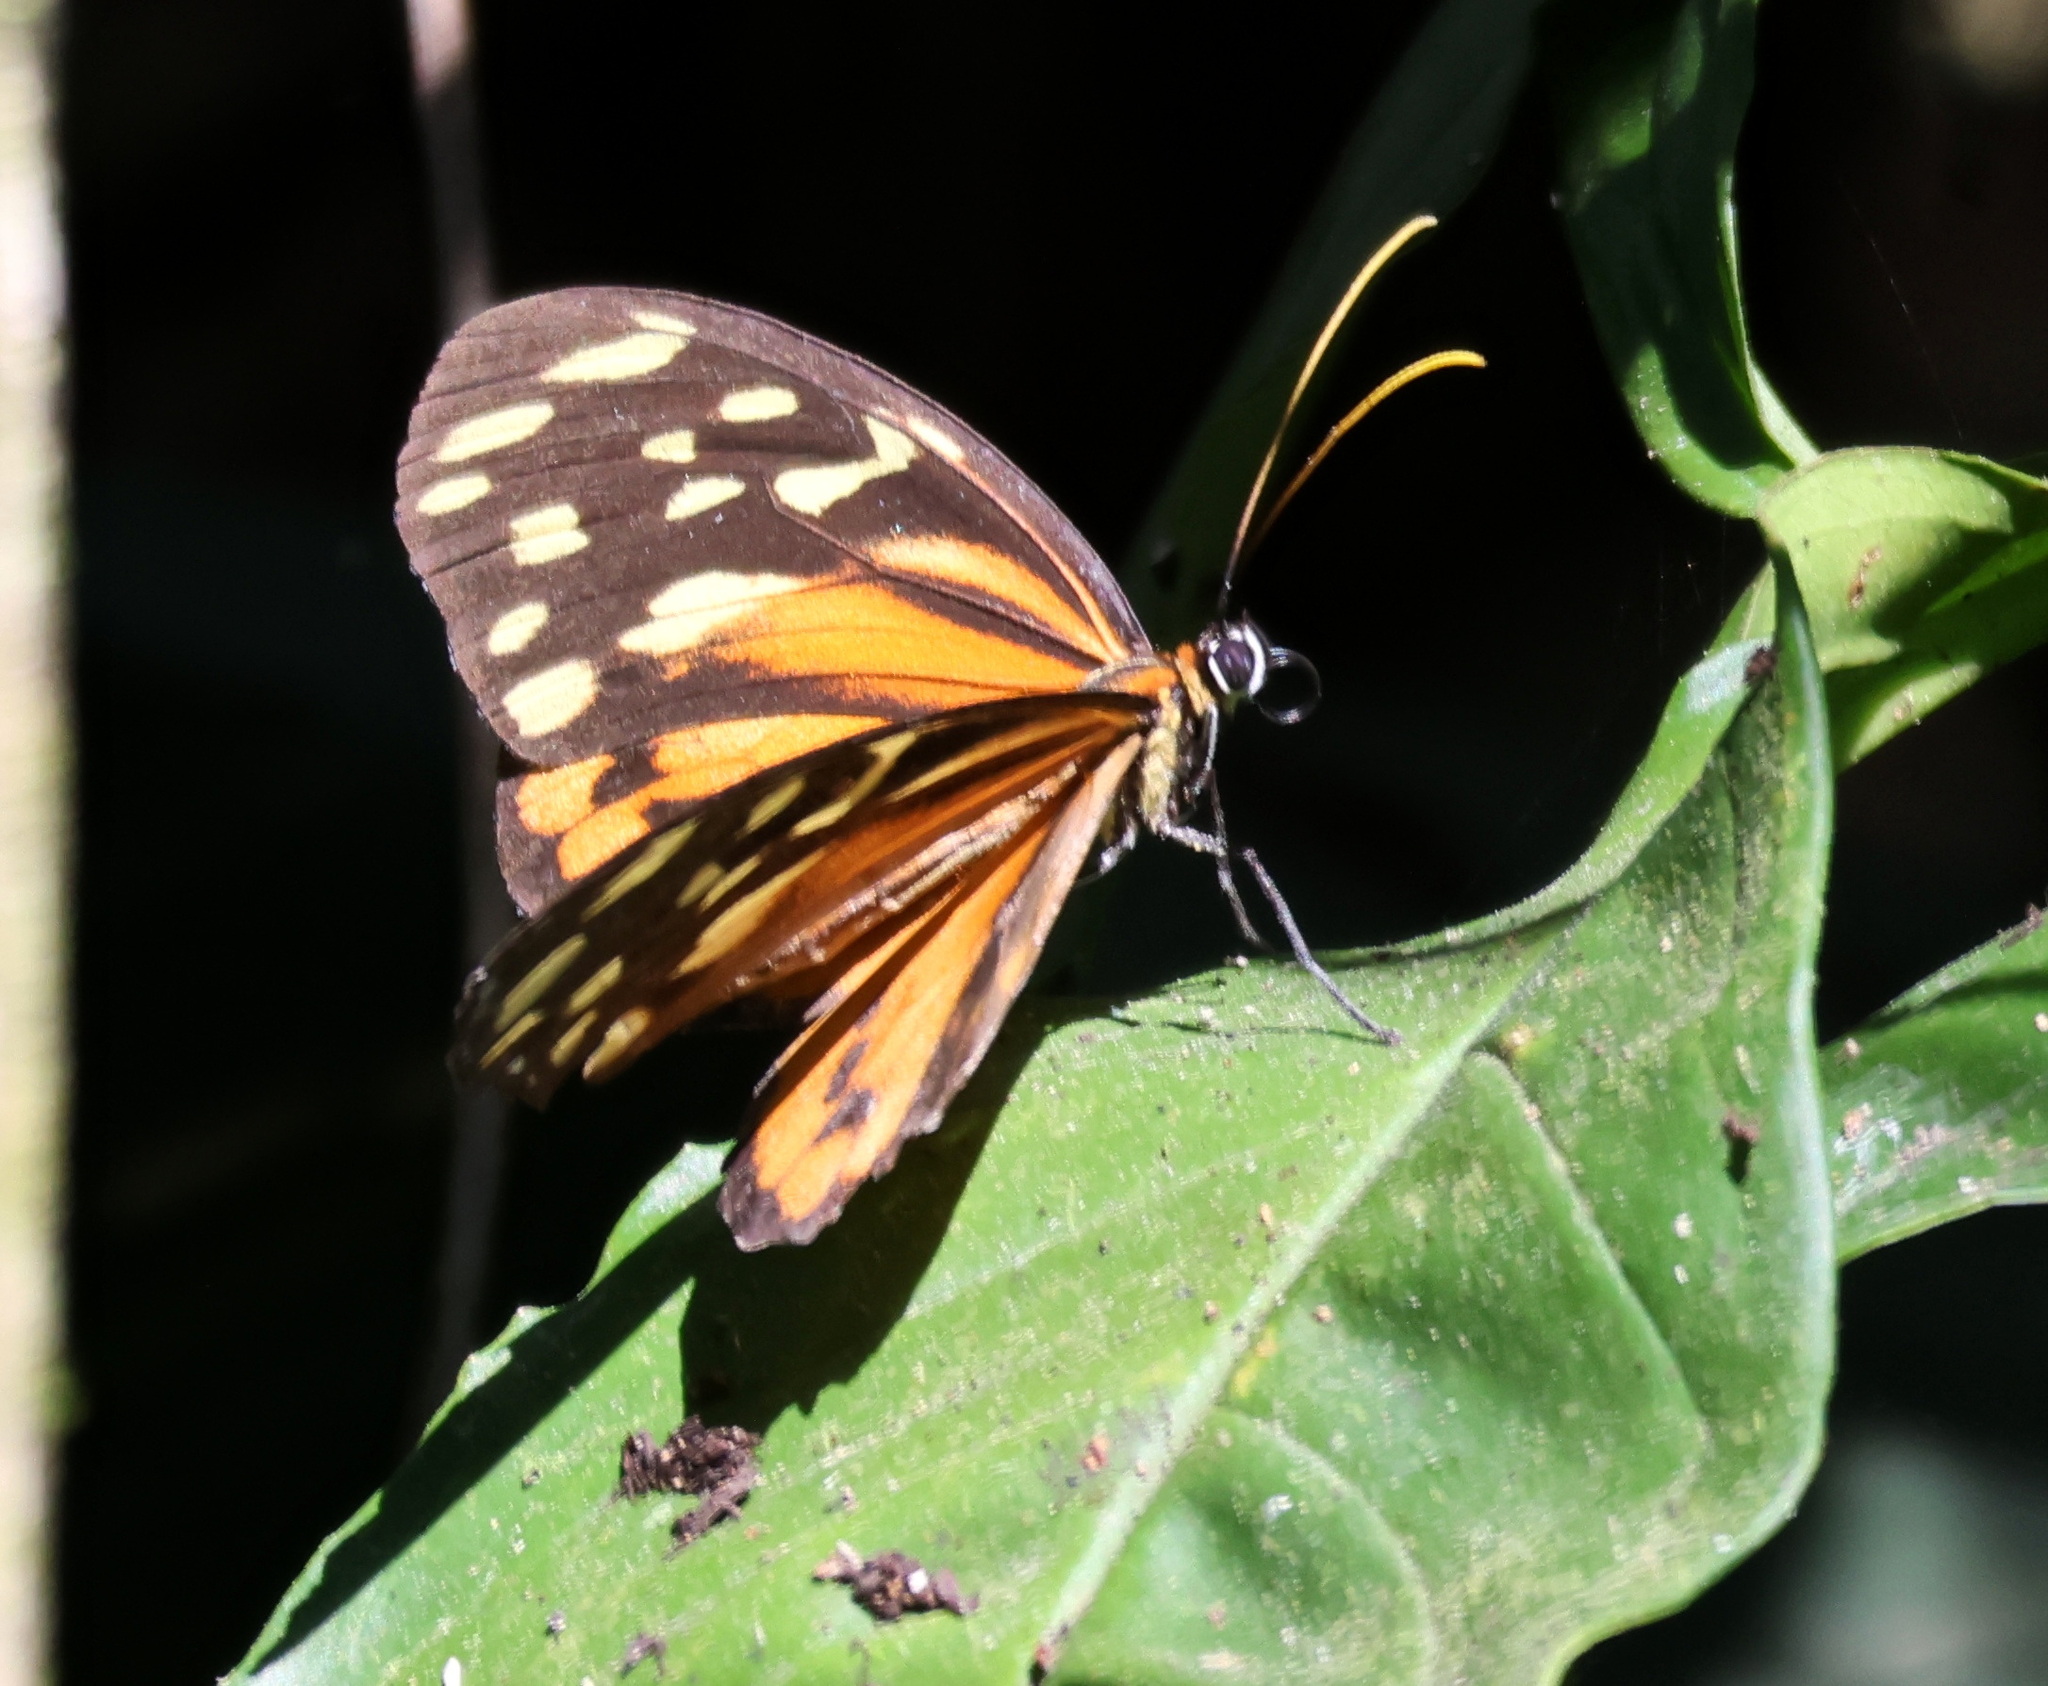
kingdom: Animalia
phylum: Arthropoda
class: Insecta
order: Lepidoptera
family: Nymphalidae
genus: Tithorea
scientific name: Tithorea harmonia
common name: Harmonia tigerwing
